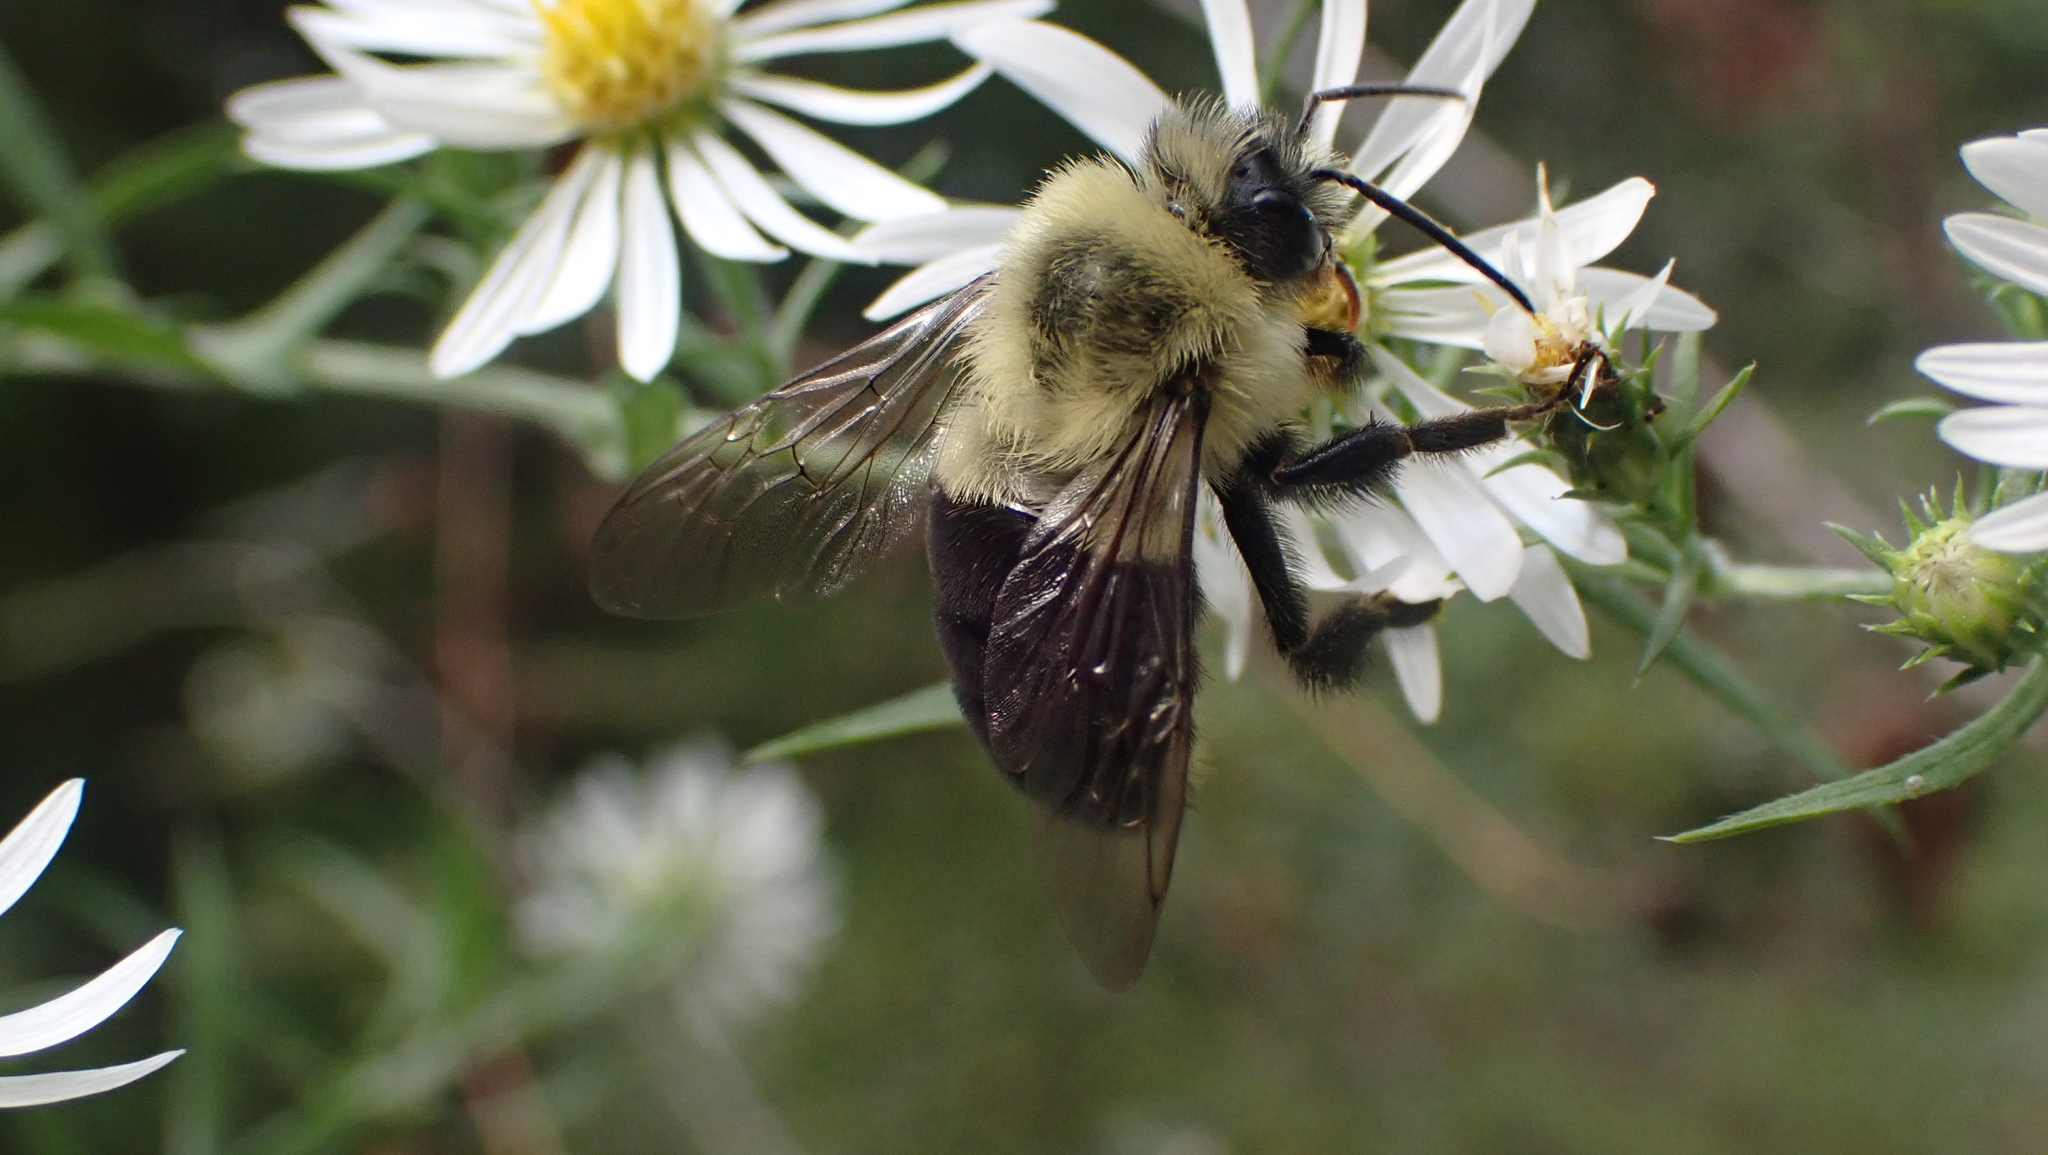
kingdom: Animalia
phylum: Arthropoda
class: Insecta
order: Hymenoptera
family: Apidae
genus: Bombus
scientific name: Bombus impatiens
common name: Common eastern bumble bee
